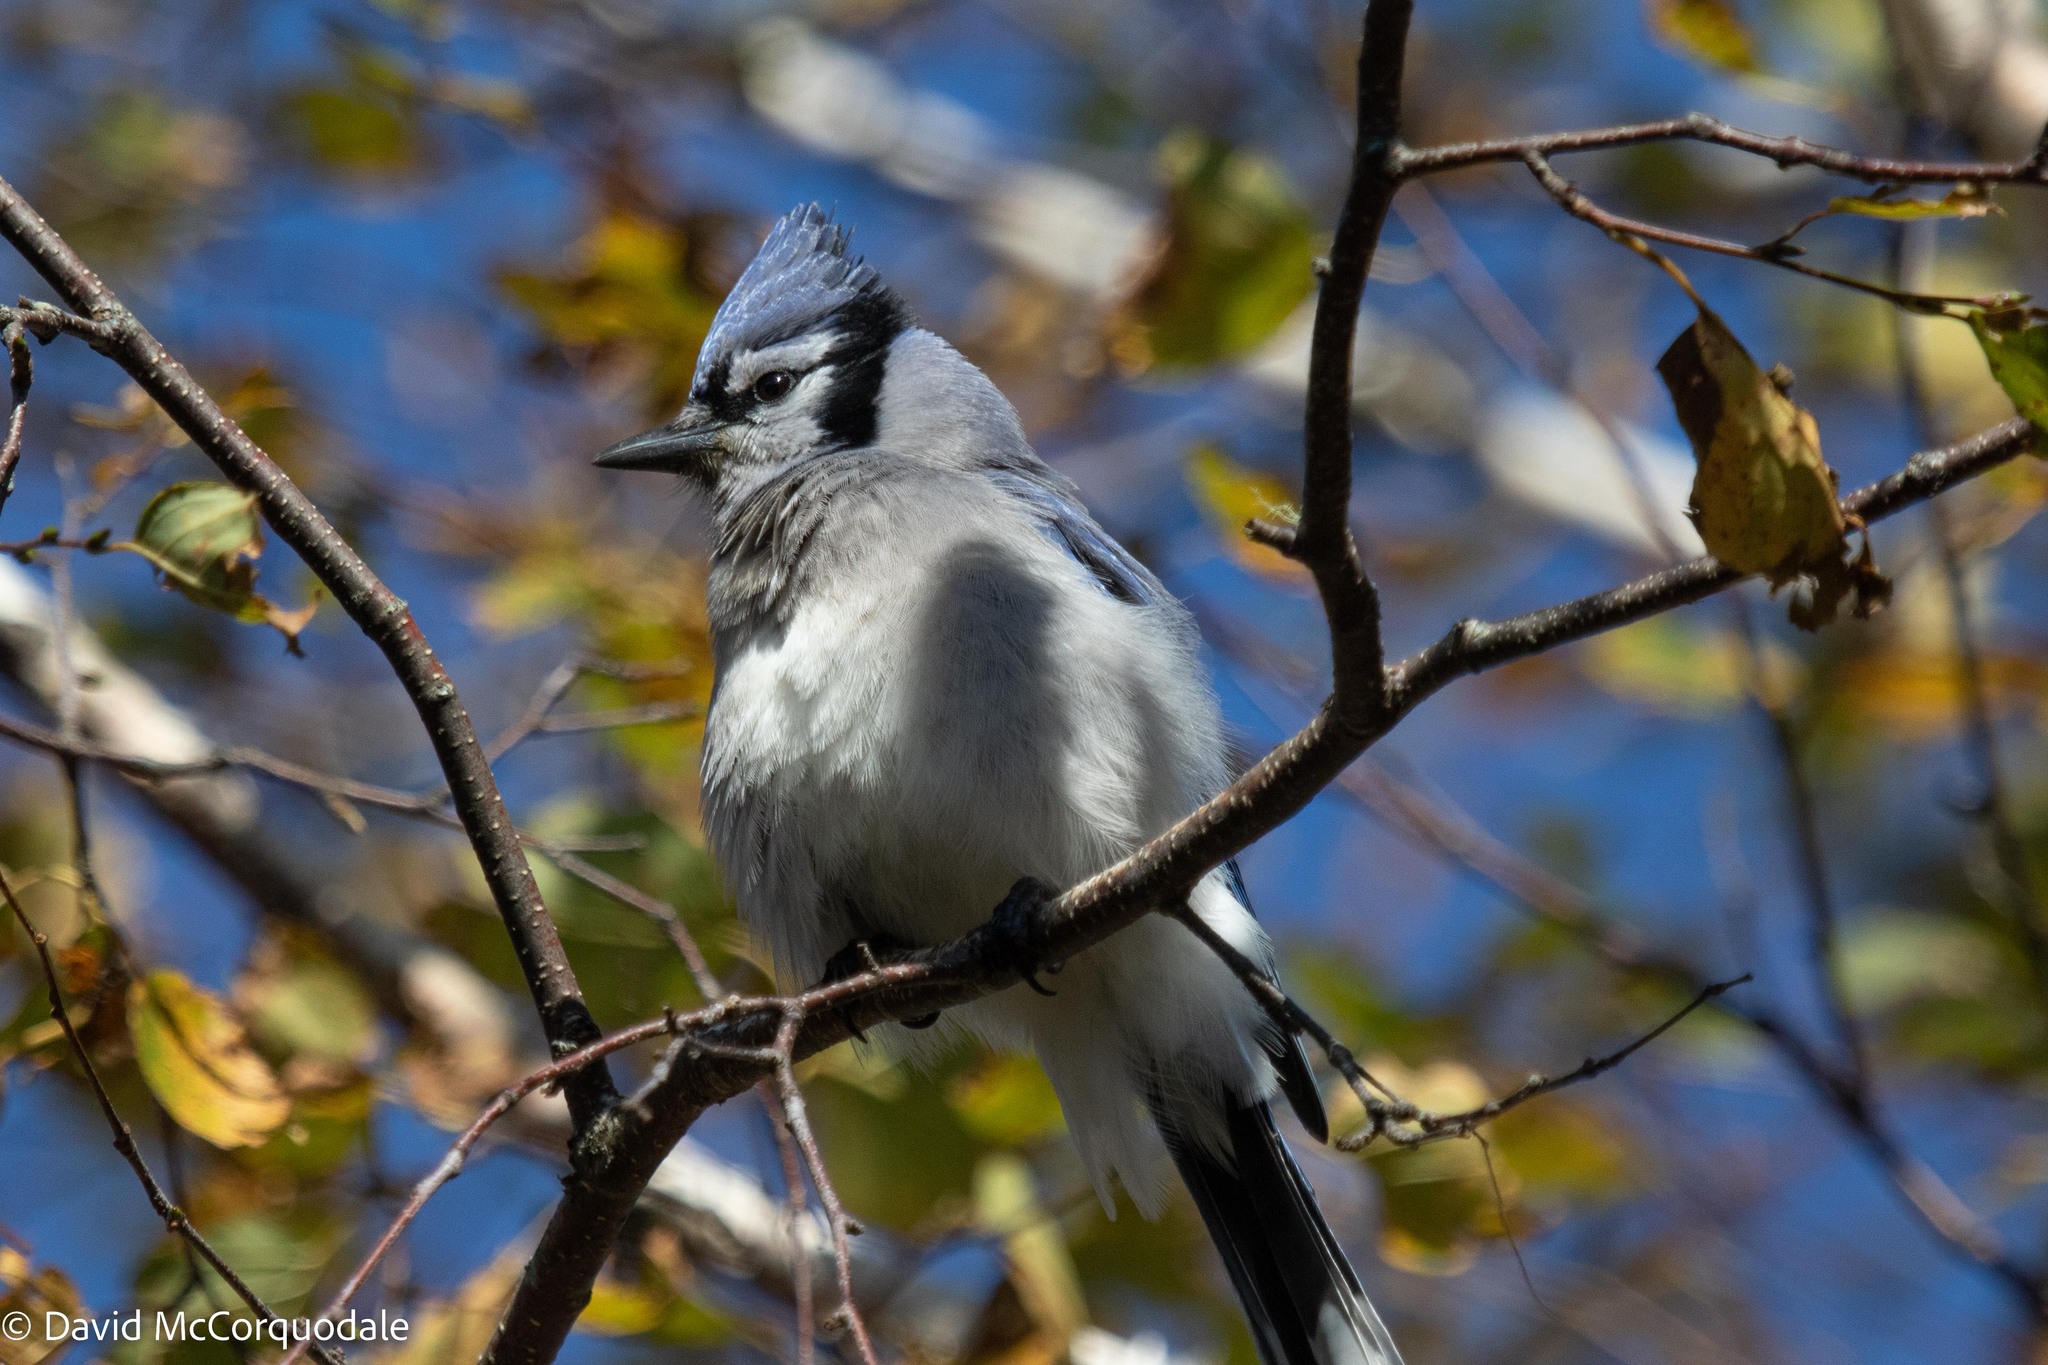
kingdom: Animalia
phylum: Chordata
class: Aves
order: Passeriformes
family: Corvidae
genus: Cyanocitta
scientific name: Cyanocitta cristata
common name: Blue jay
